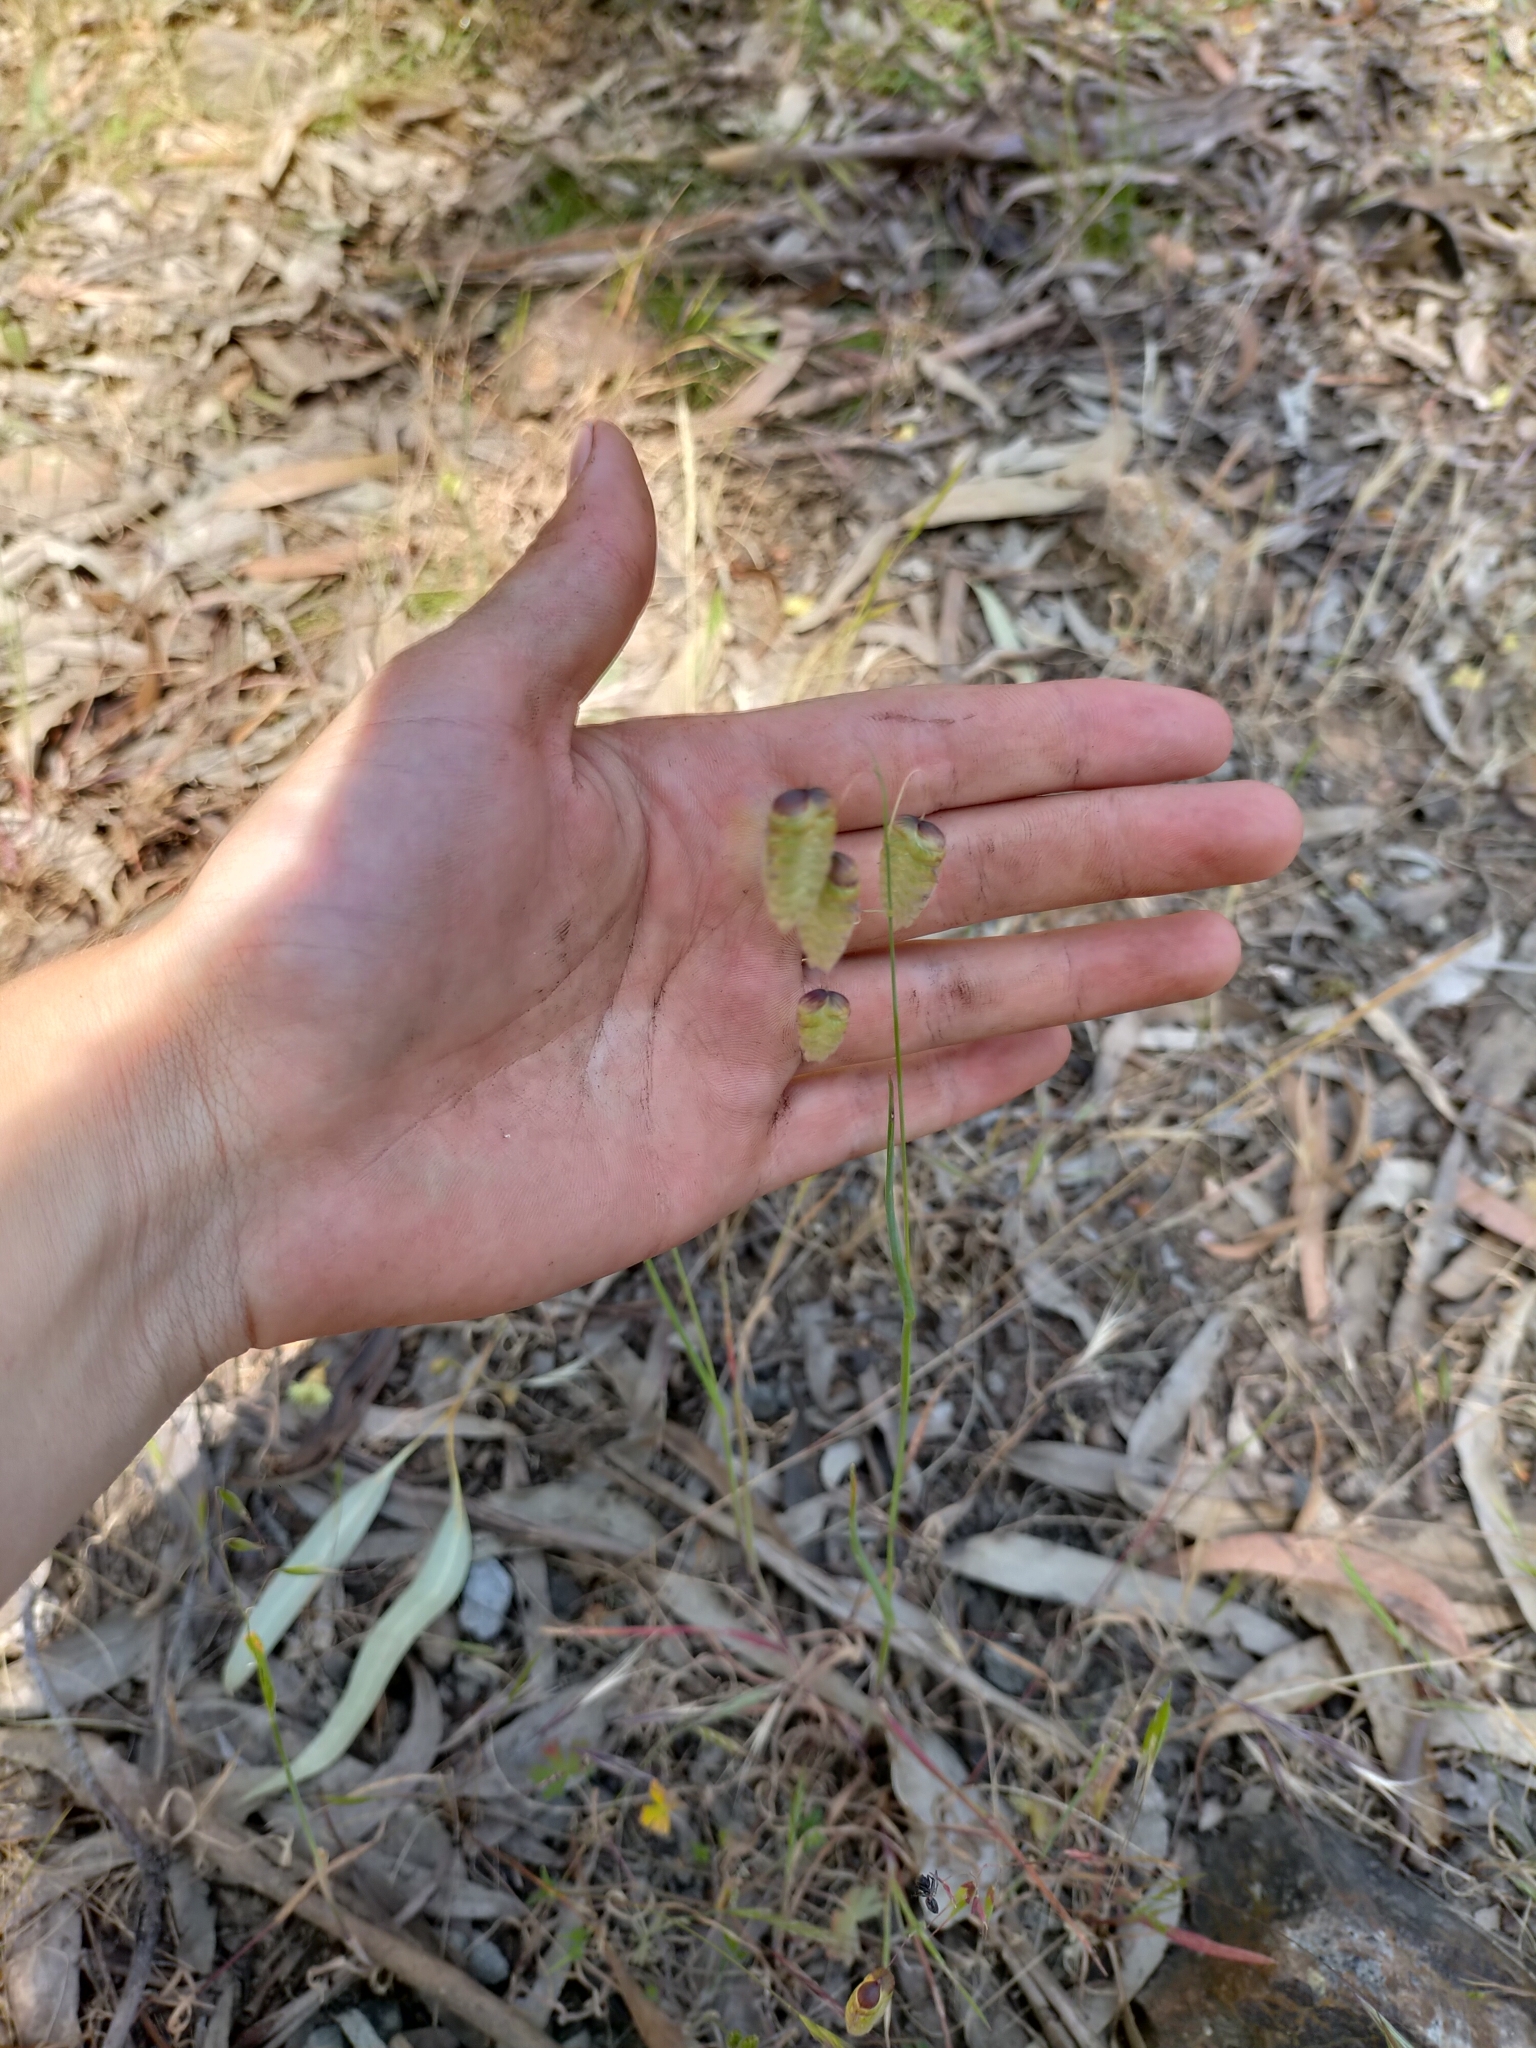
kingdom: Plantae
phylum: Tracheophyta
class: Liliopsida
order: Poales
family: Poaceae
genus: Briza
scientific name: Briza maxima
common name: Big quakinggrass
